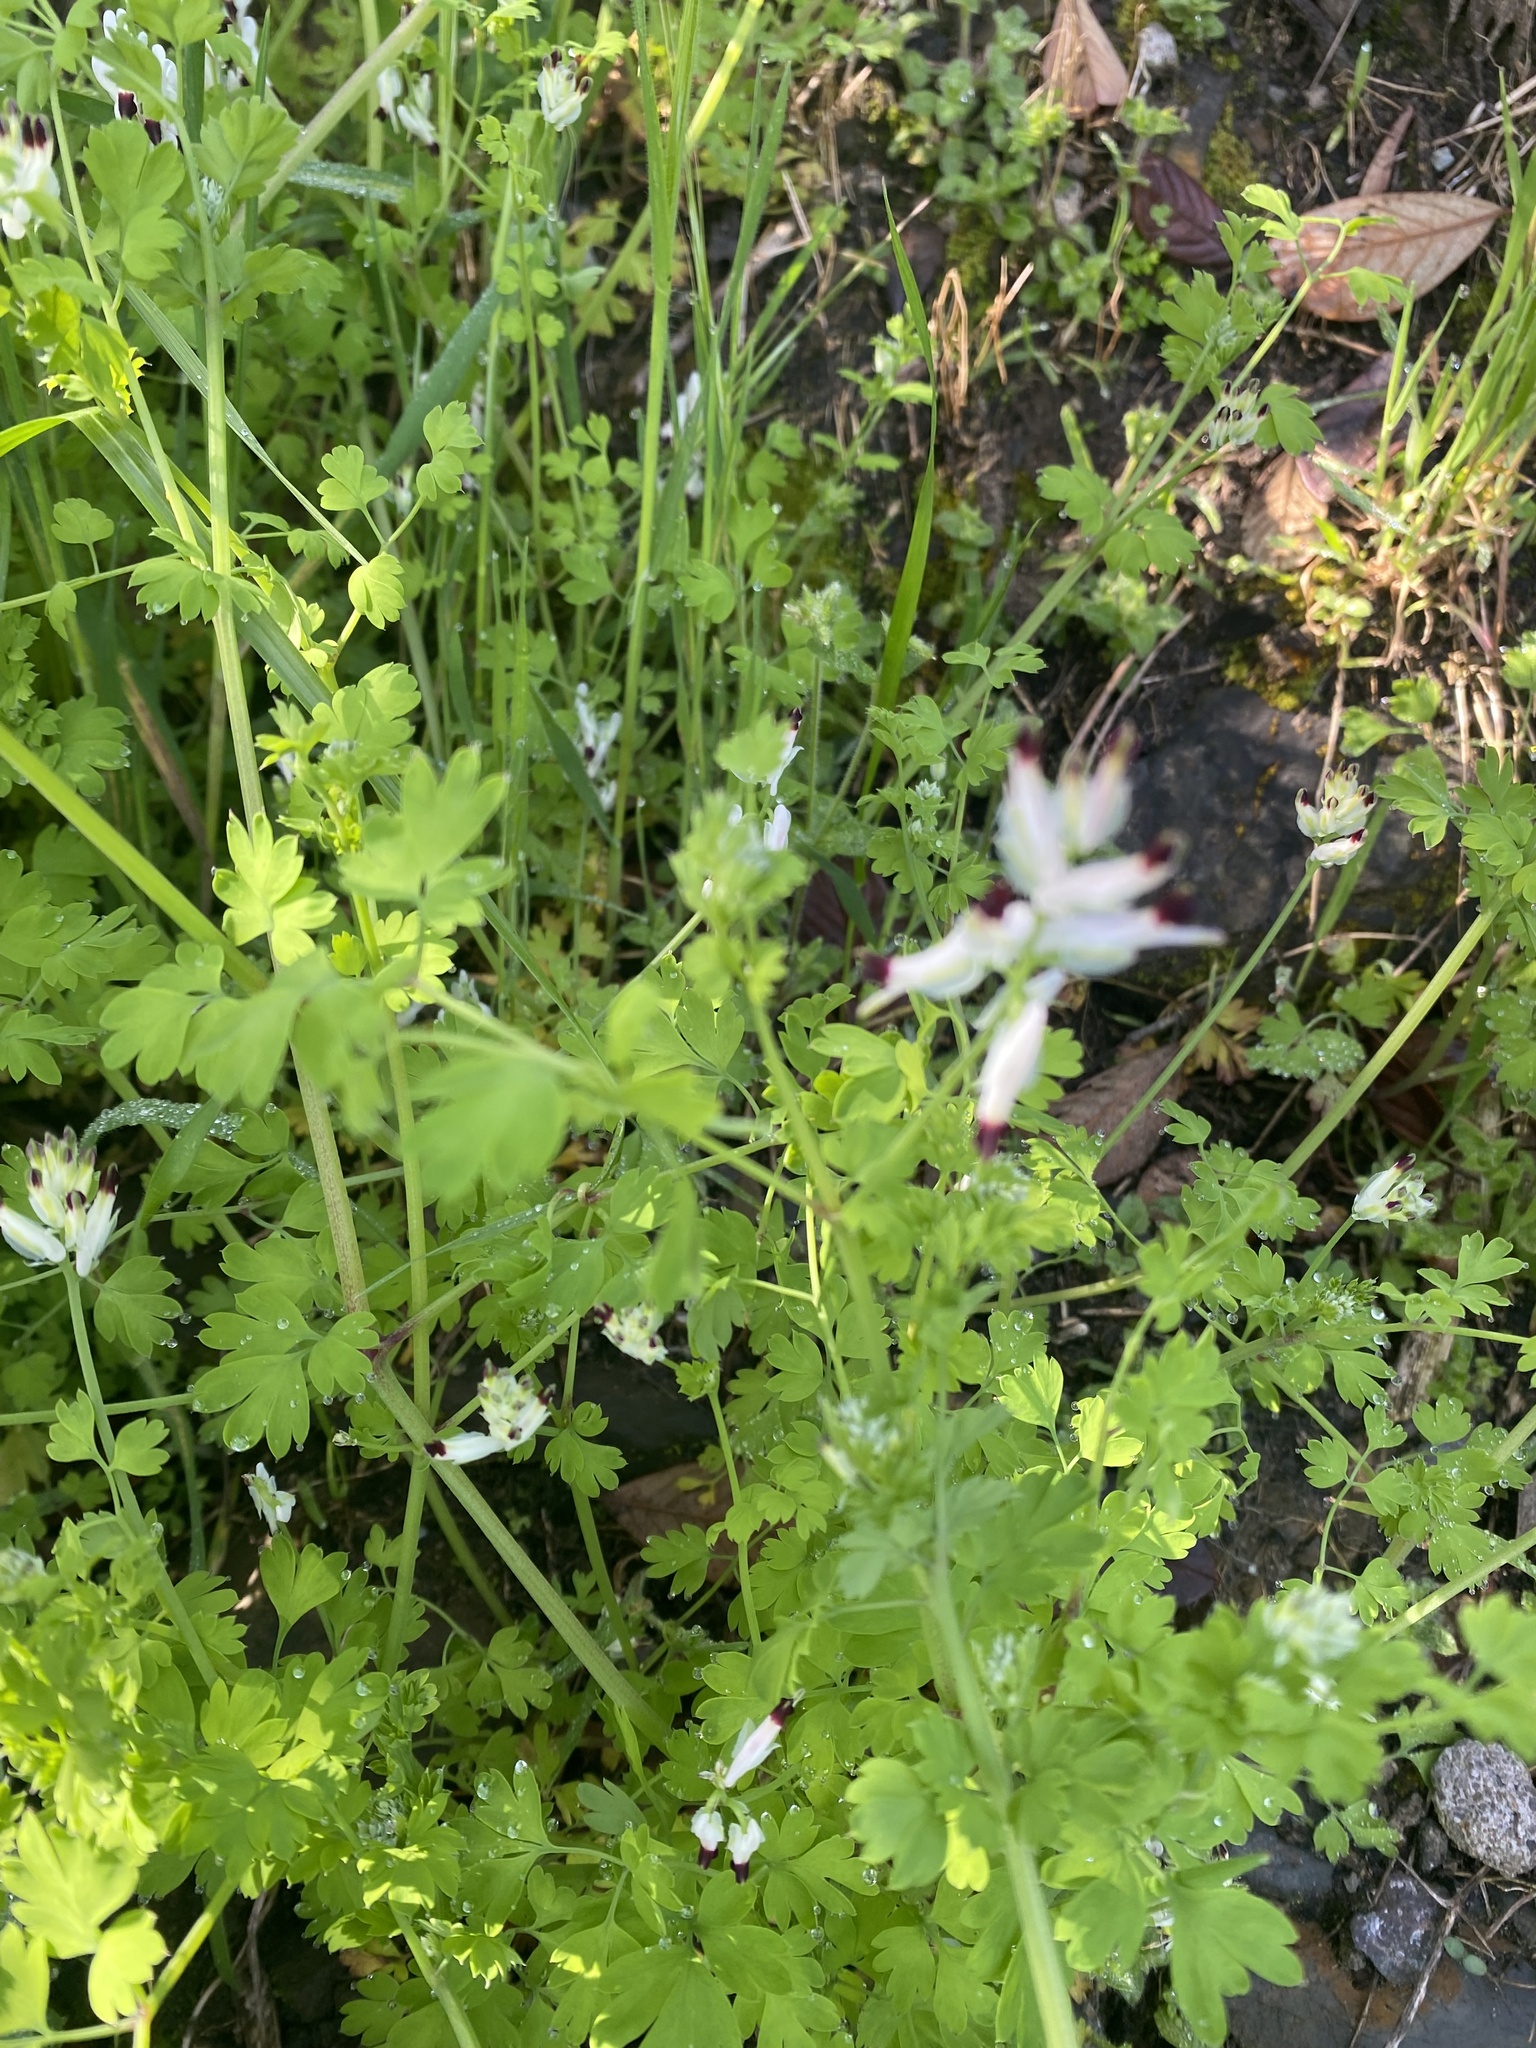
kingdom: Plantae
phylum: Tracheophyta
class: Magnoliopsida
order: Ranunculales
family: Papaveraceae
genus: Fumaria
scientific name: Fumaria capreolata
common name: White ramping-fumitory
